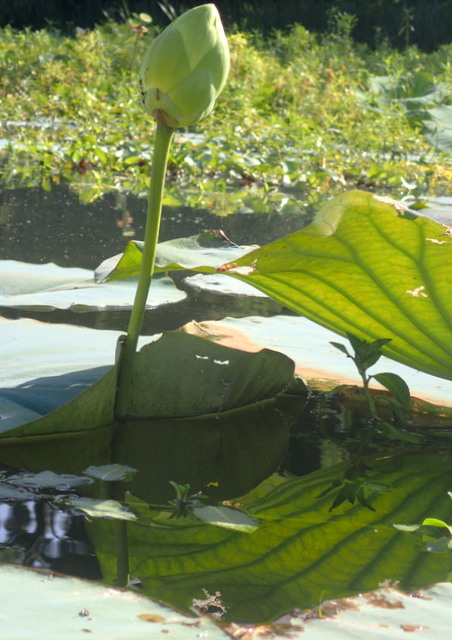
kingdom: Plantae
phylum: Tracheophyta
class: Magnoliopsida
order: Proteales
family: Nelumbonaceae
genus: Nelumbo
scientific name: Nelumbo lutea
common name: American lotus
